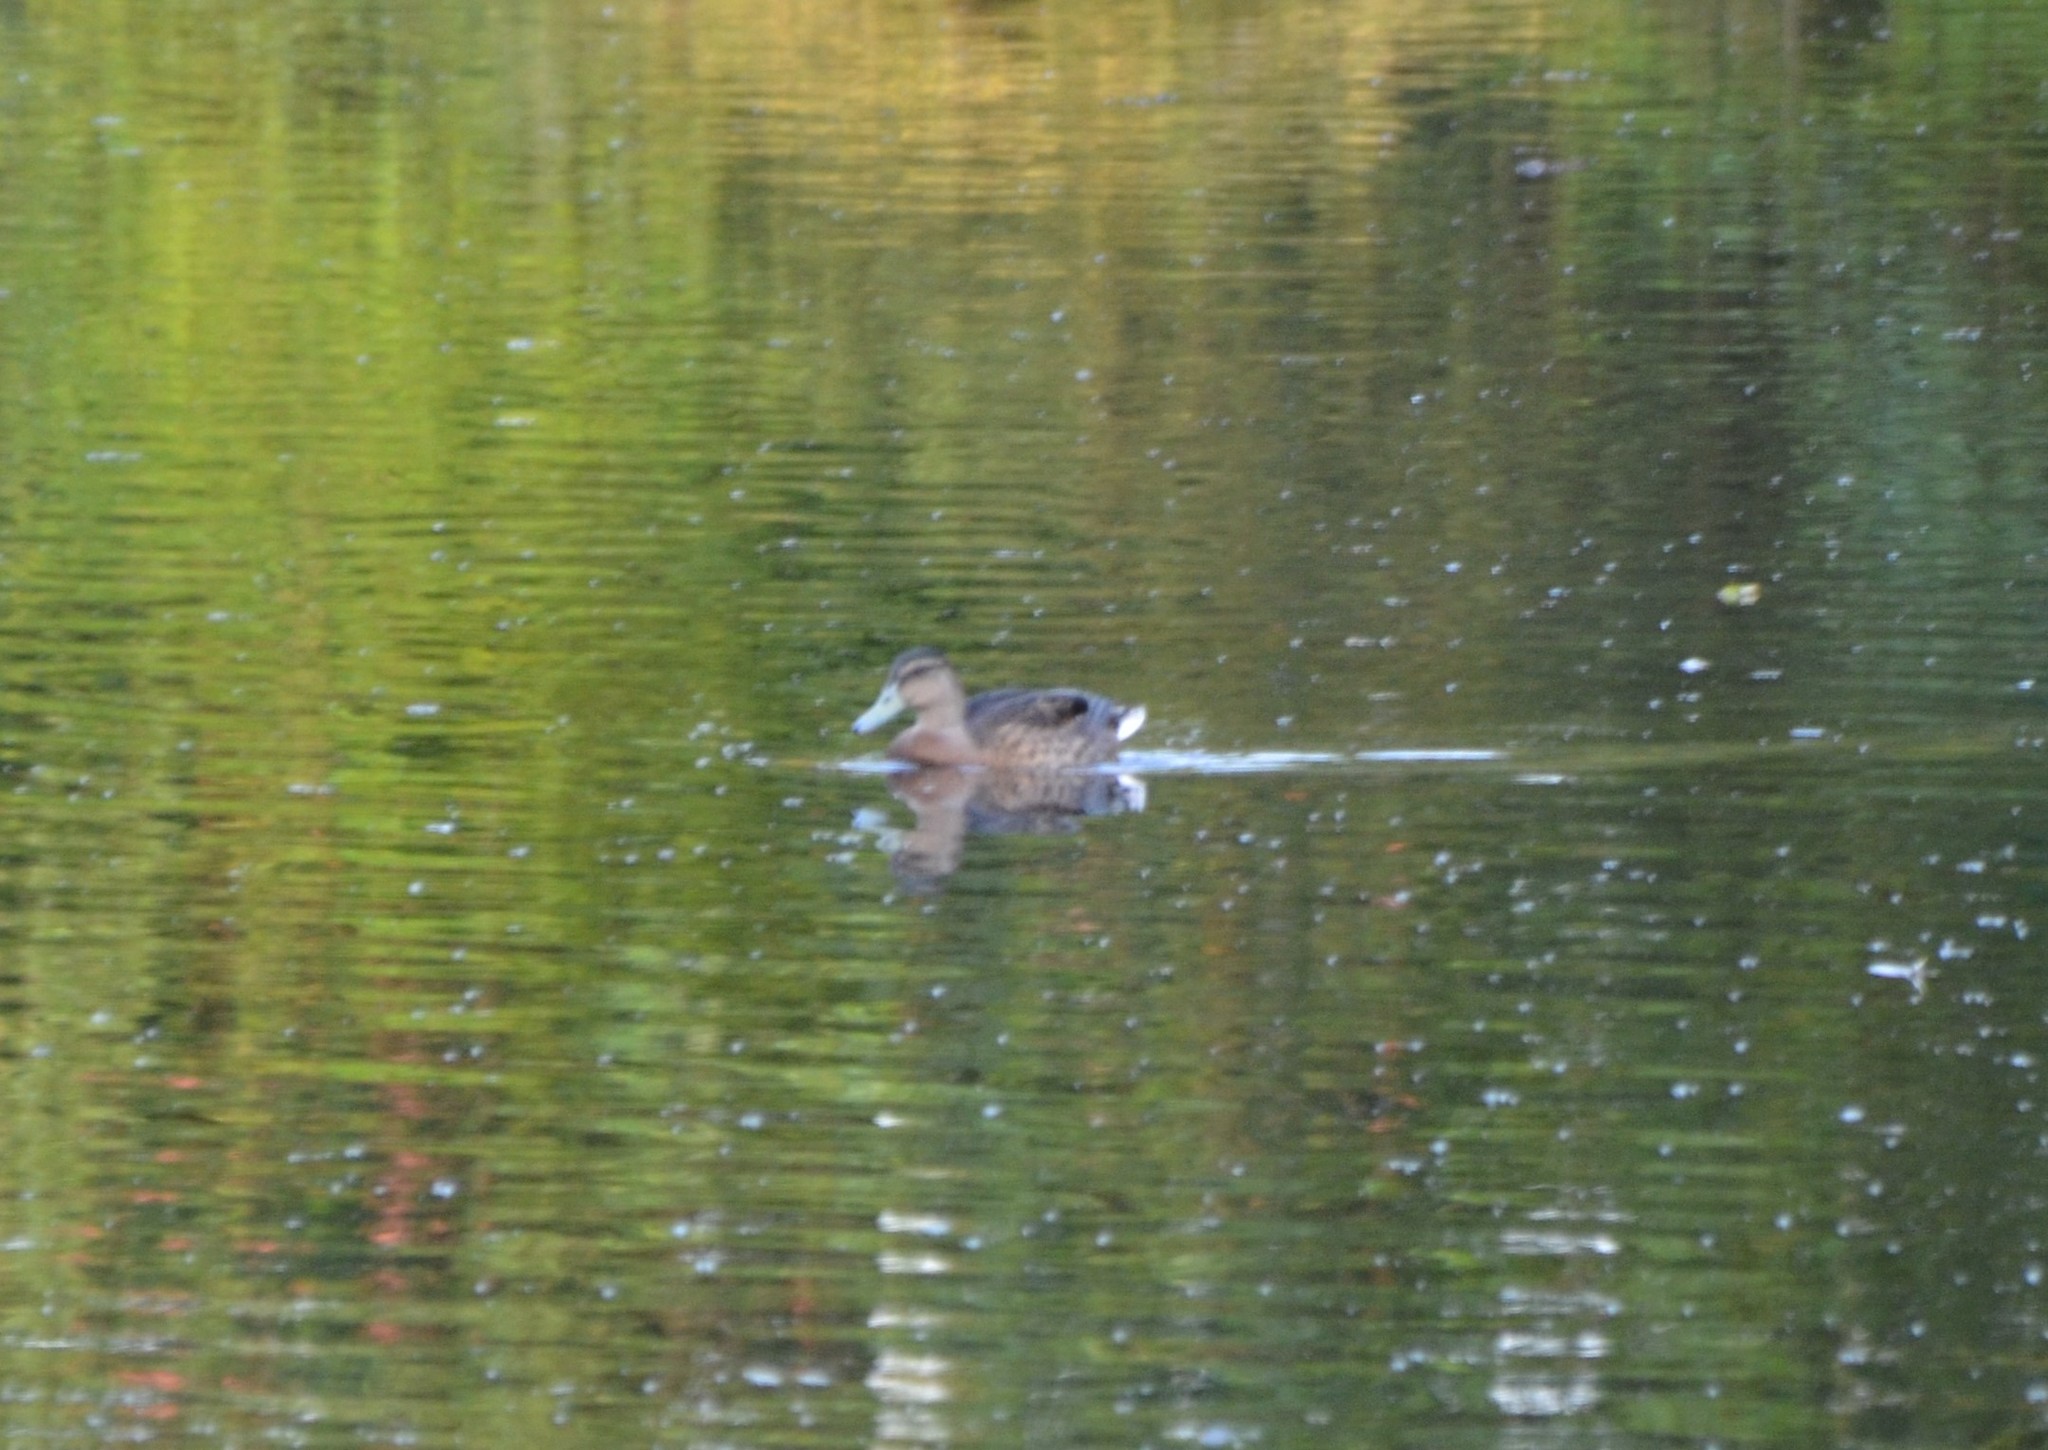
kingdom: Animalia
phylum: Chordata
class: Aves
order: Anseriformes
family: Anatidae
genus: Anas
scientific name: Anas platyrhynchos
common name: Mallard
